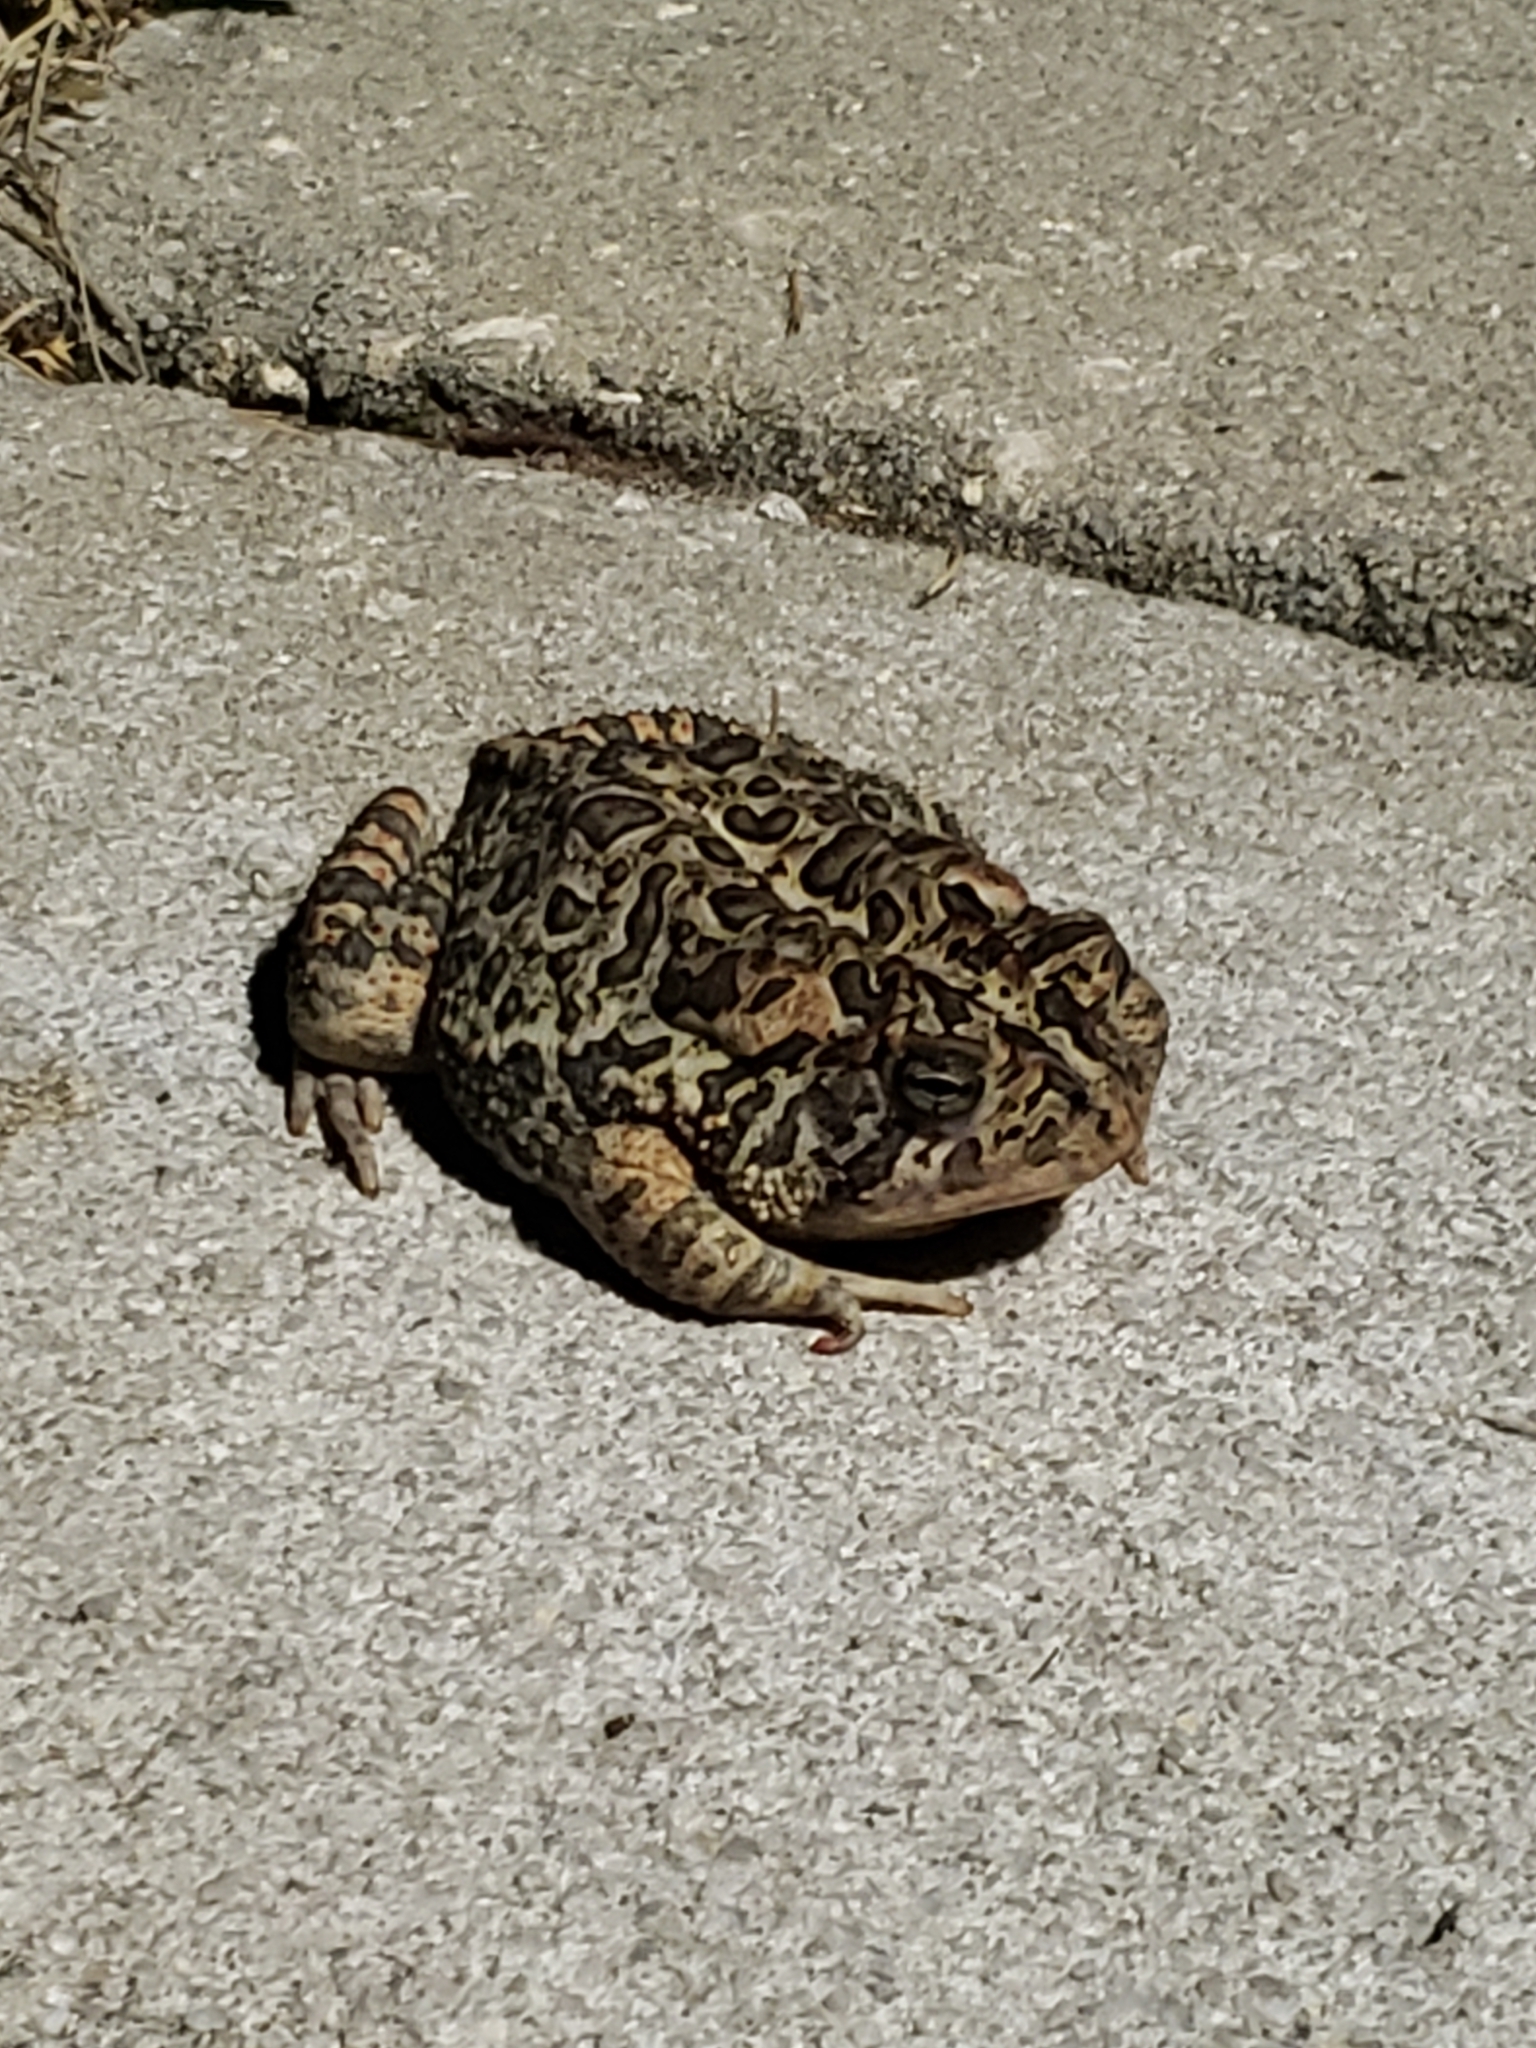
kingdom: Animalia
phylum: Chordata
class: Amphibia
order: Anura
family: Bufonidae
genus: Anaxyrus
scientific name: Anaxyrus terrestris
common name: Southern toad
